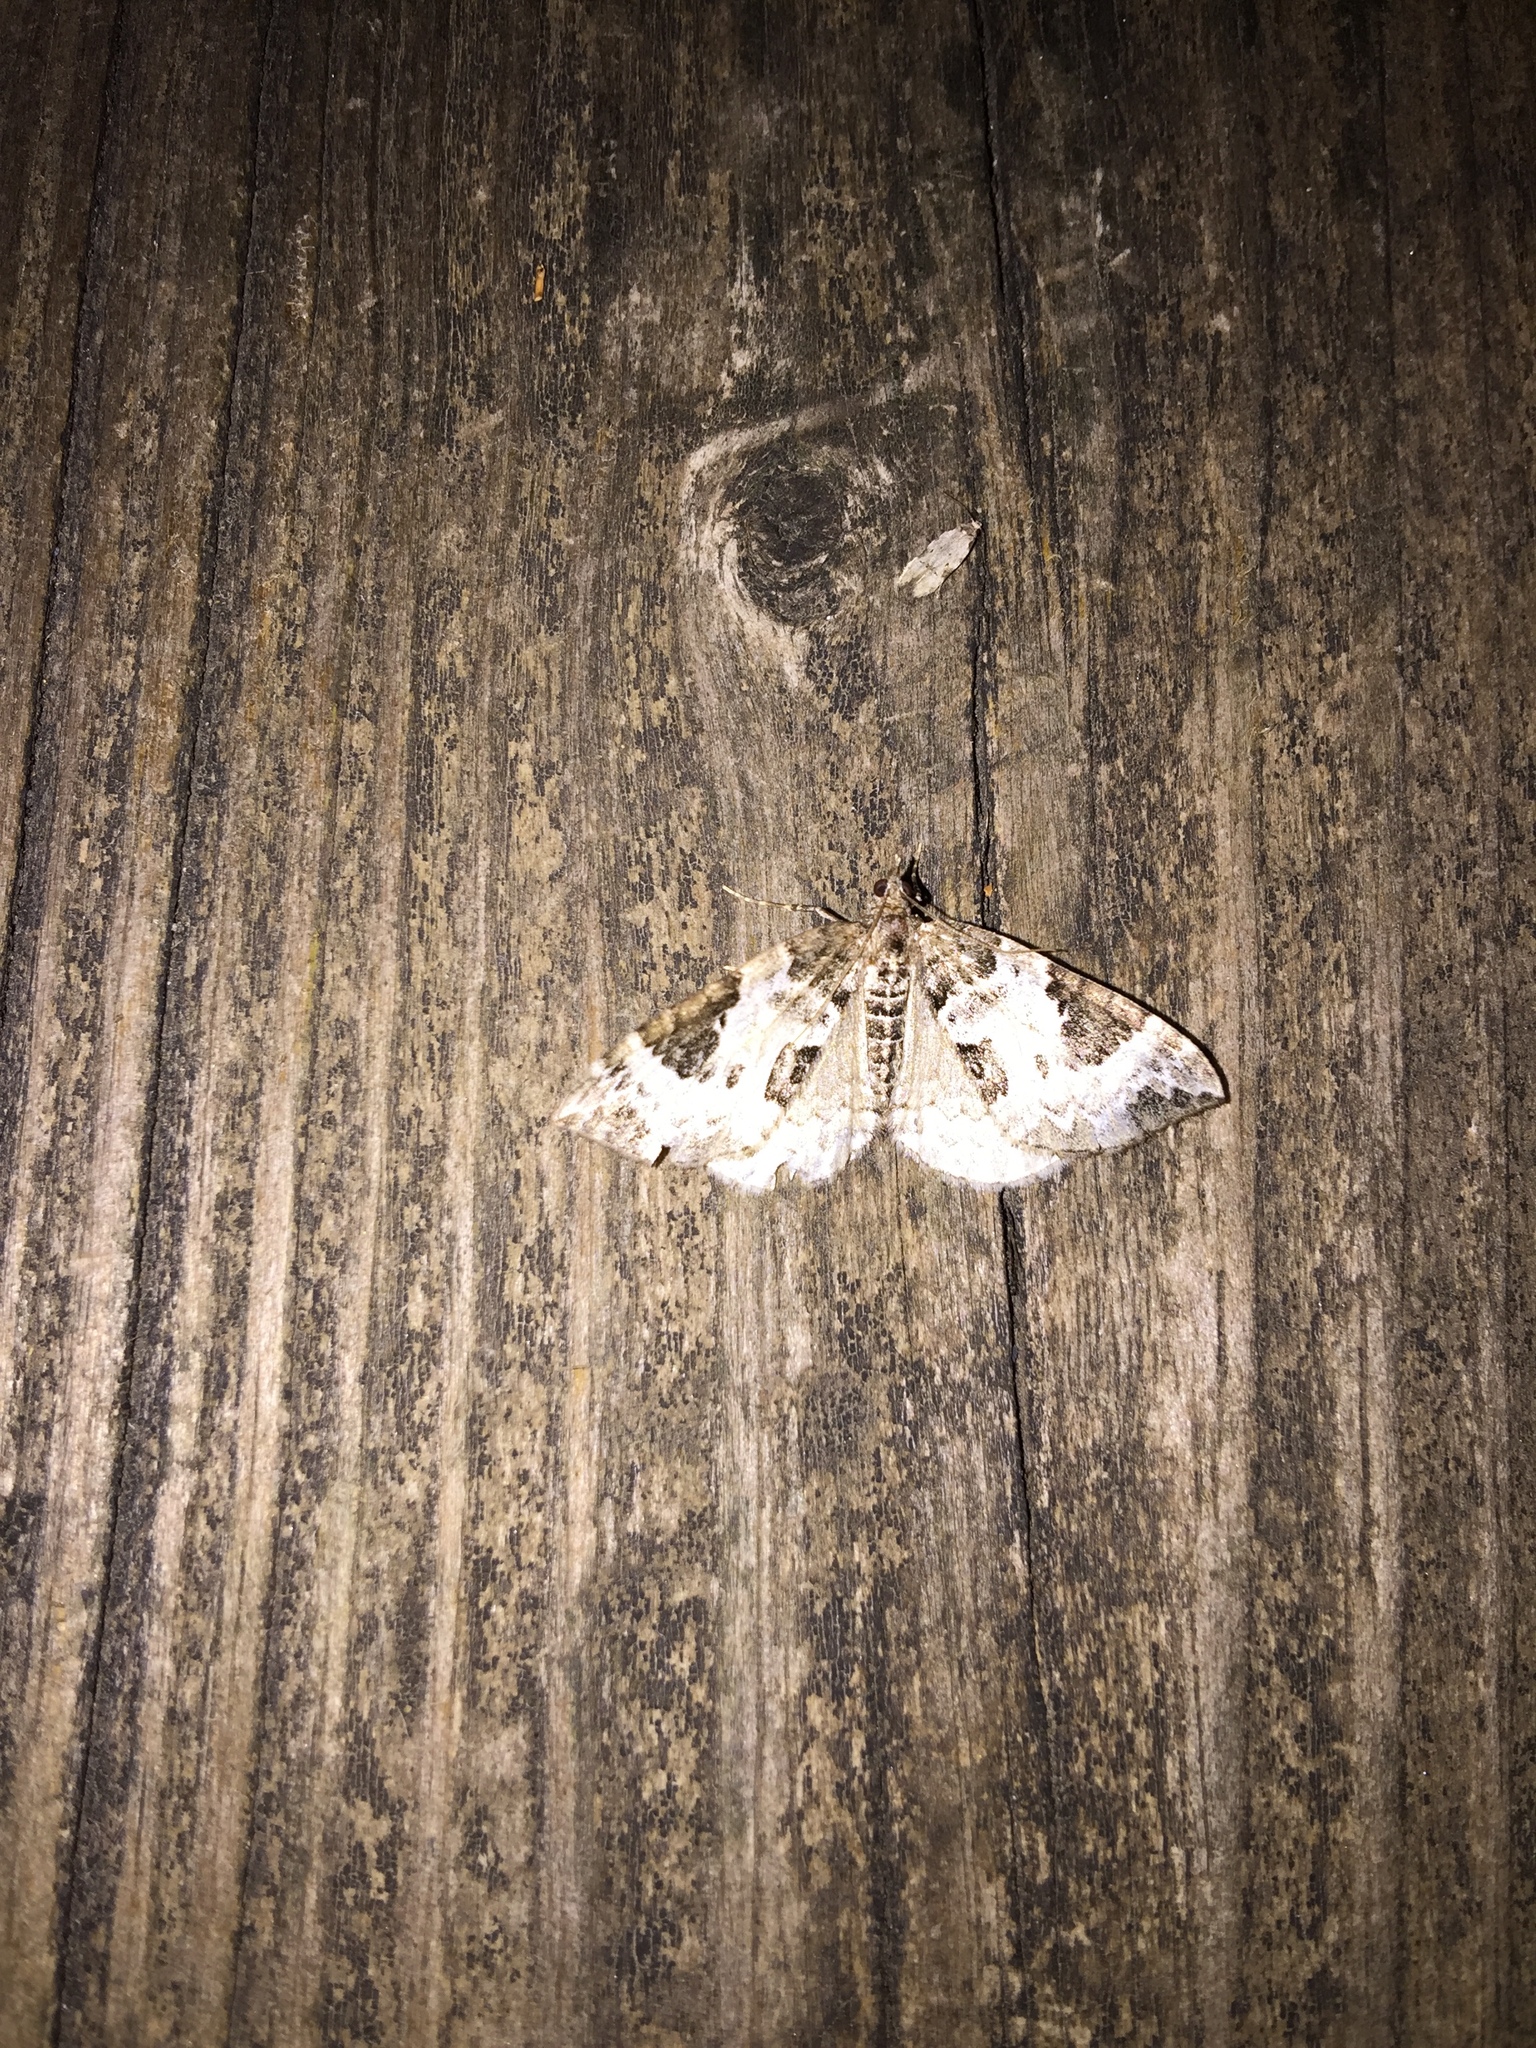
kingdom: Animalia
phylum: Arthropoda
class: Insecta
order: Lepidoptera
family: Geometridae
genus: Eulithis
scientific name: Eulithis explanata
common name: White eulithis
